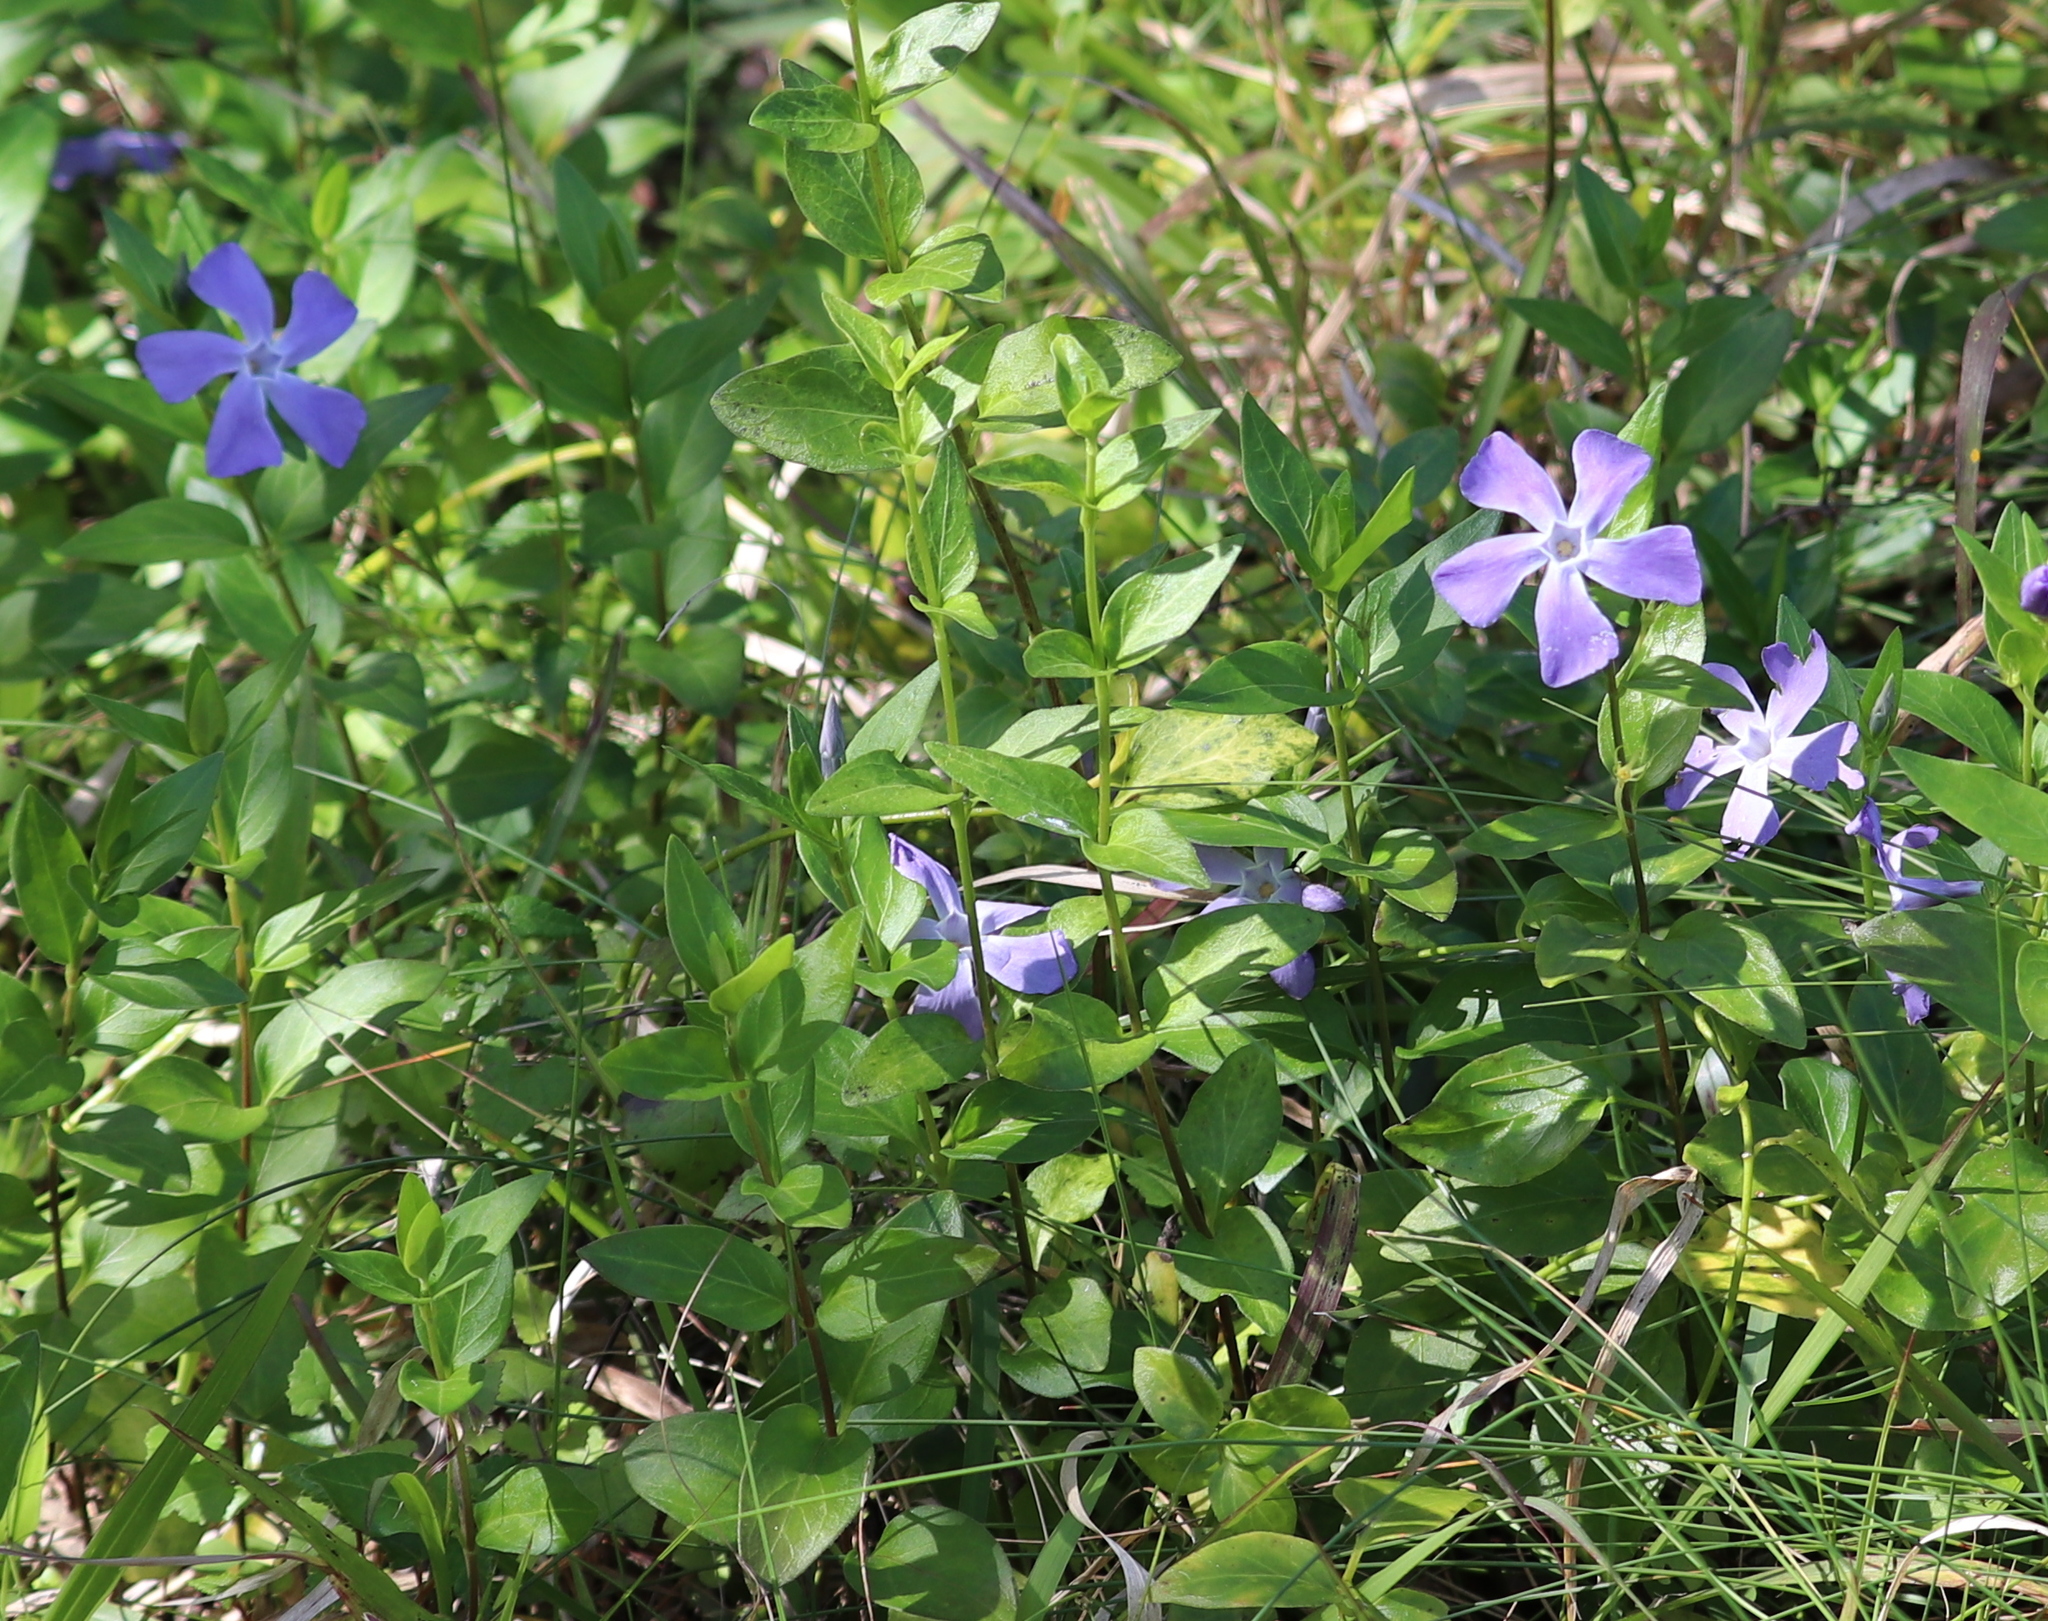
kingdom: Plantae
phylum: Tracheophyta
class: Magnoliopsida
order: Gentianales
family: Apocynaceae
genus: Vinca
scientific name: Vinca major
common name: Greater periwinkle
